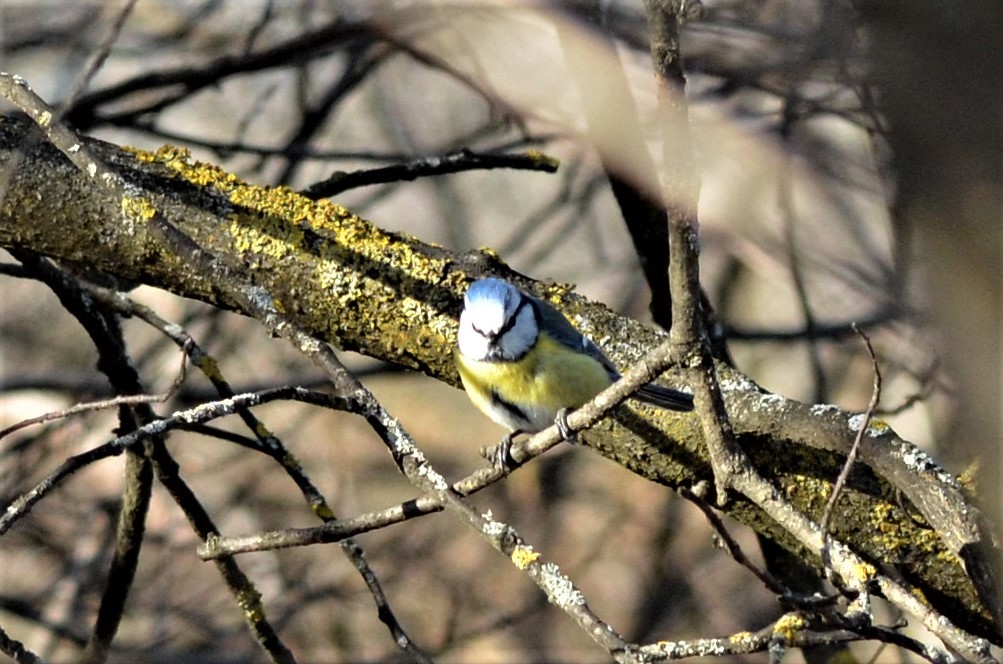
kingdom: Animalia
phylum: Chordata
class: Aves
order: Passeriformes
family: Paridae
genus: Cyanistes
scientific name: Cyanistes caeruleus
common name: Eurasian blue tit
